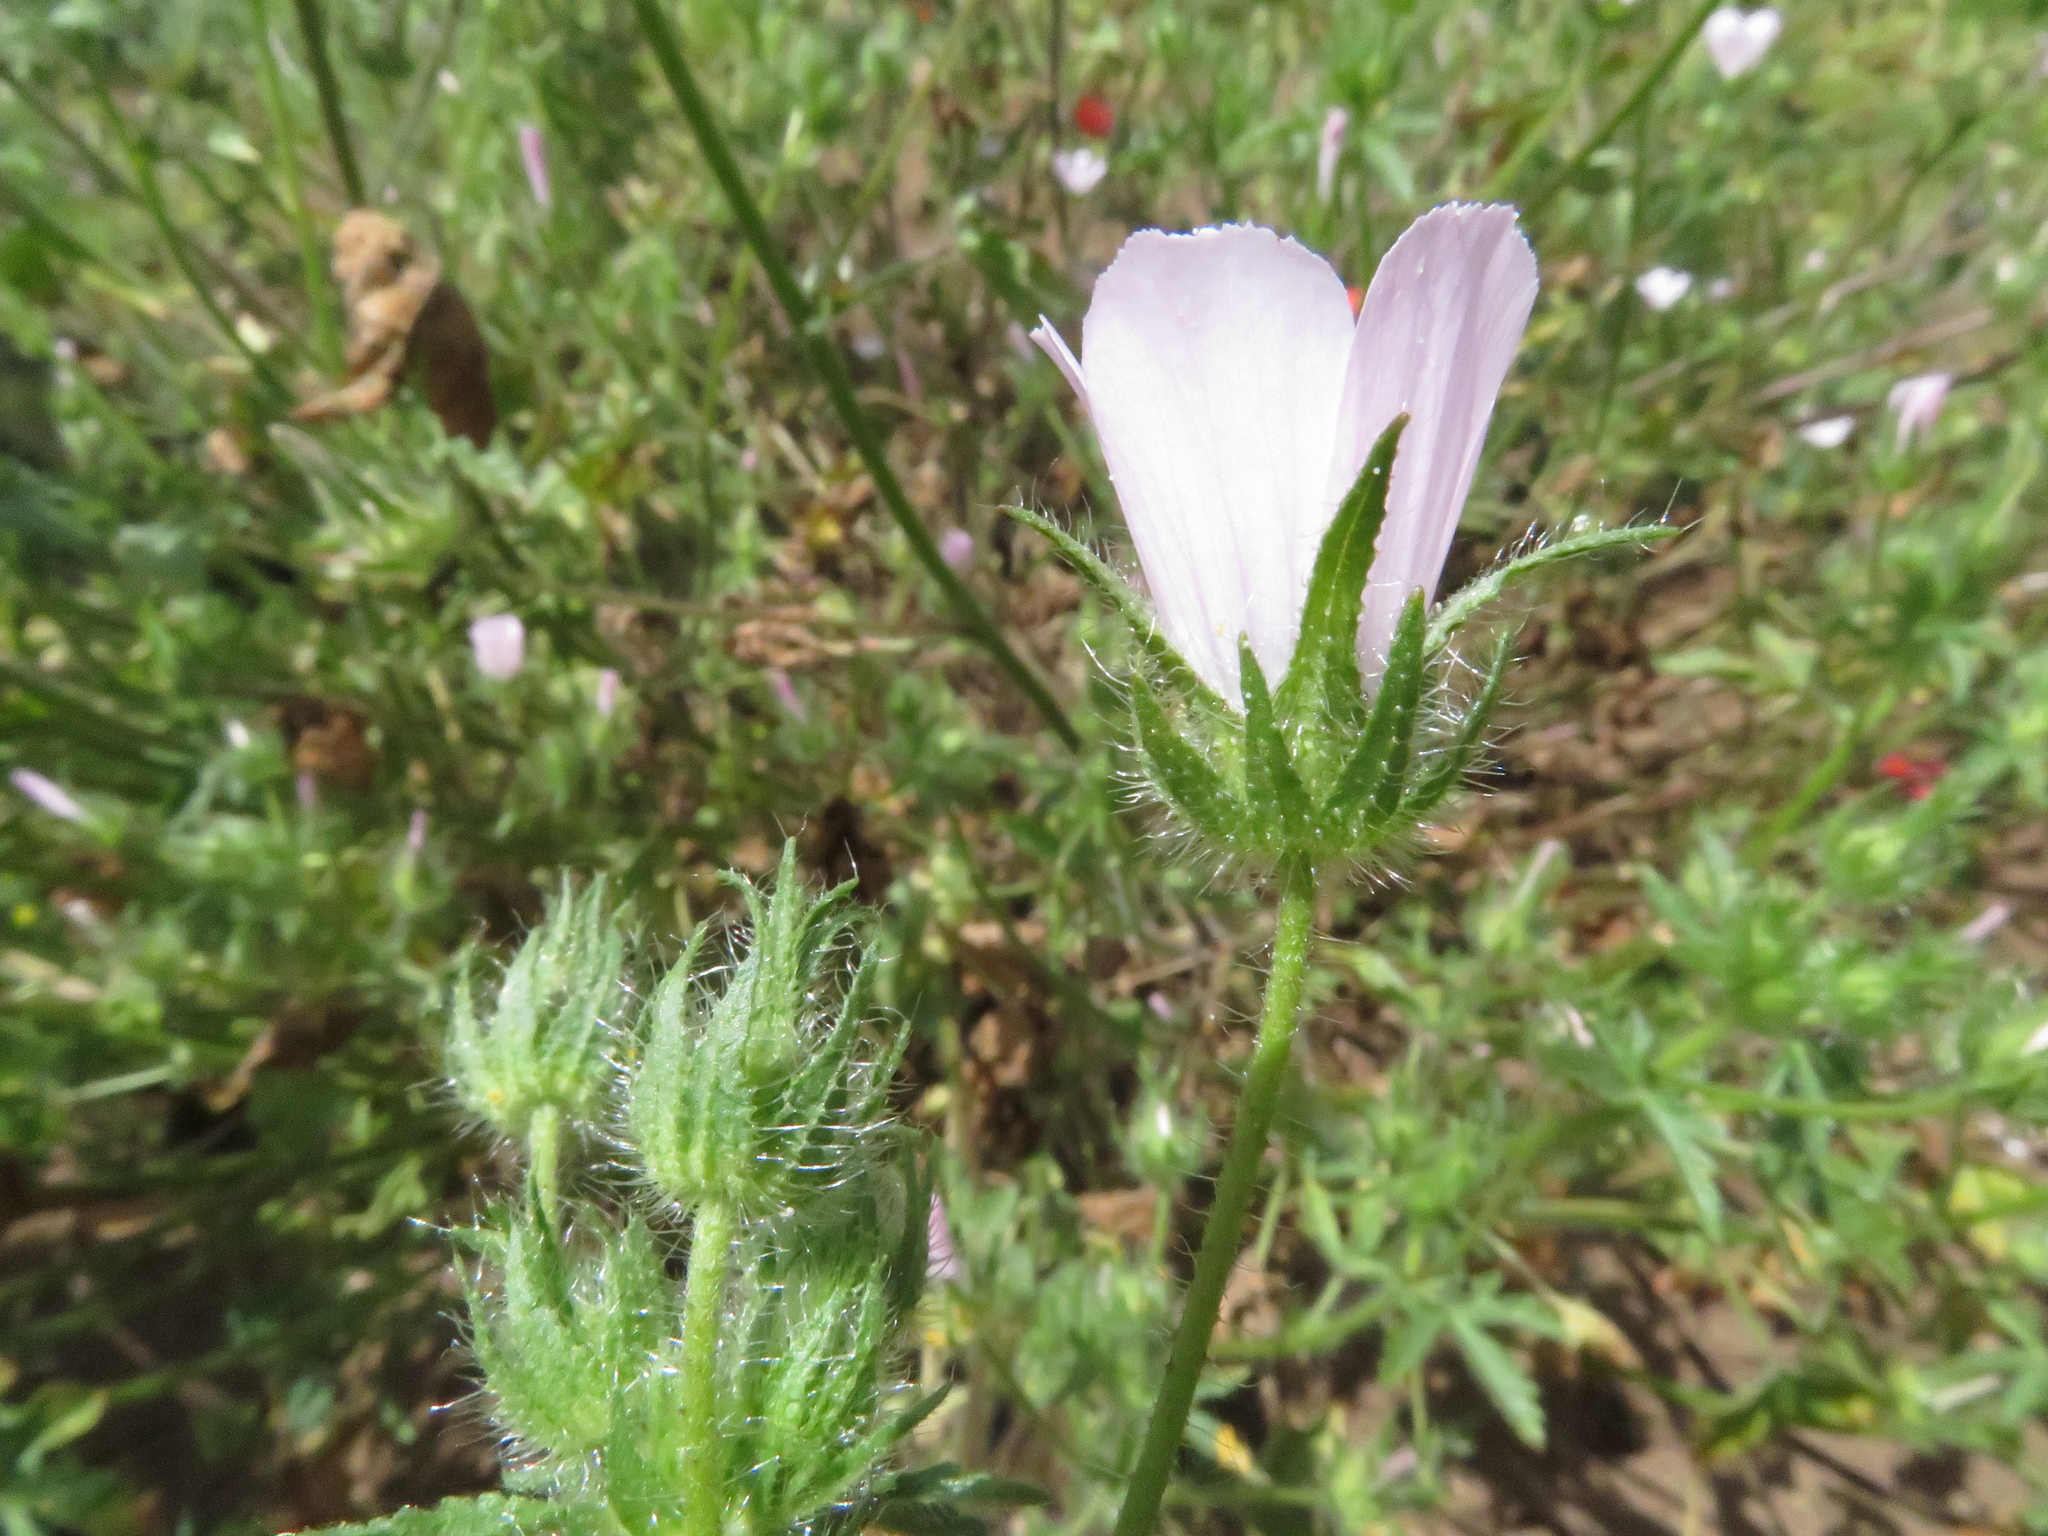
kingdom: Plantae
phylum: Tracheophyta
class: Magnoliopsida
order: Malvales
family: Malvaceae
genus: Althaea
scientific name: Althaea hirsuta
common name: Rough marsh-mallow
